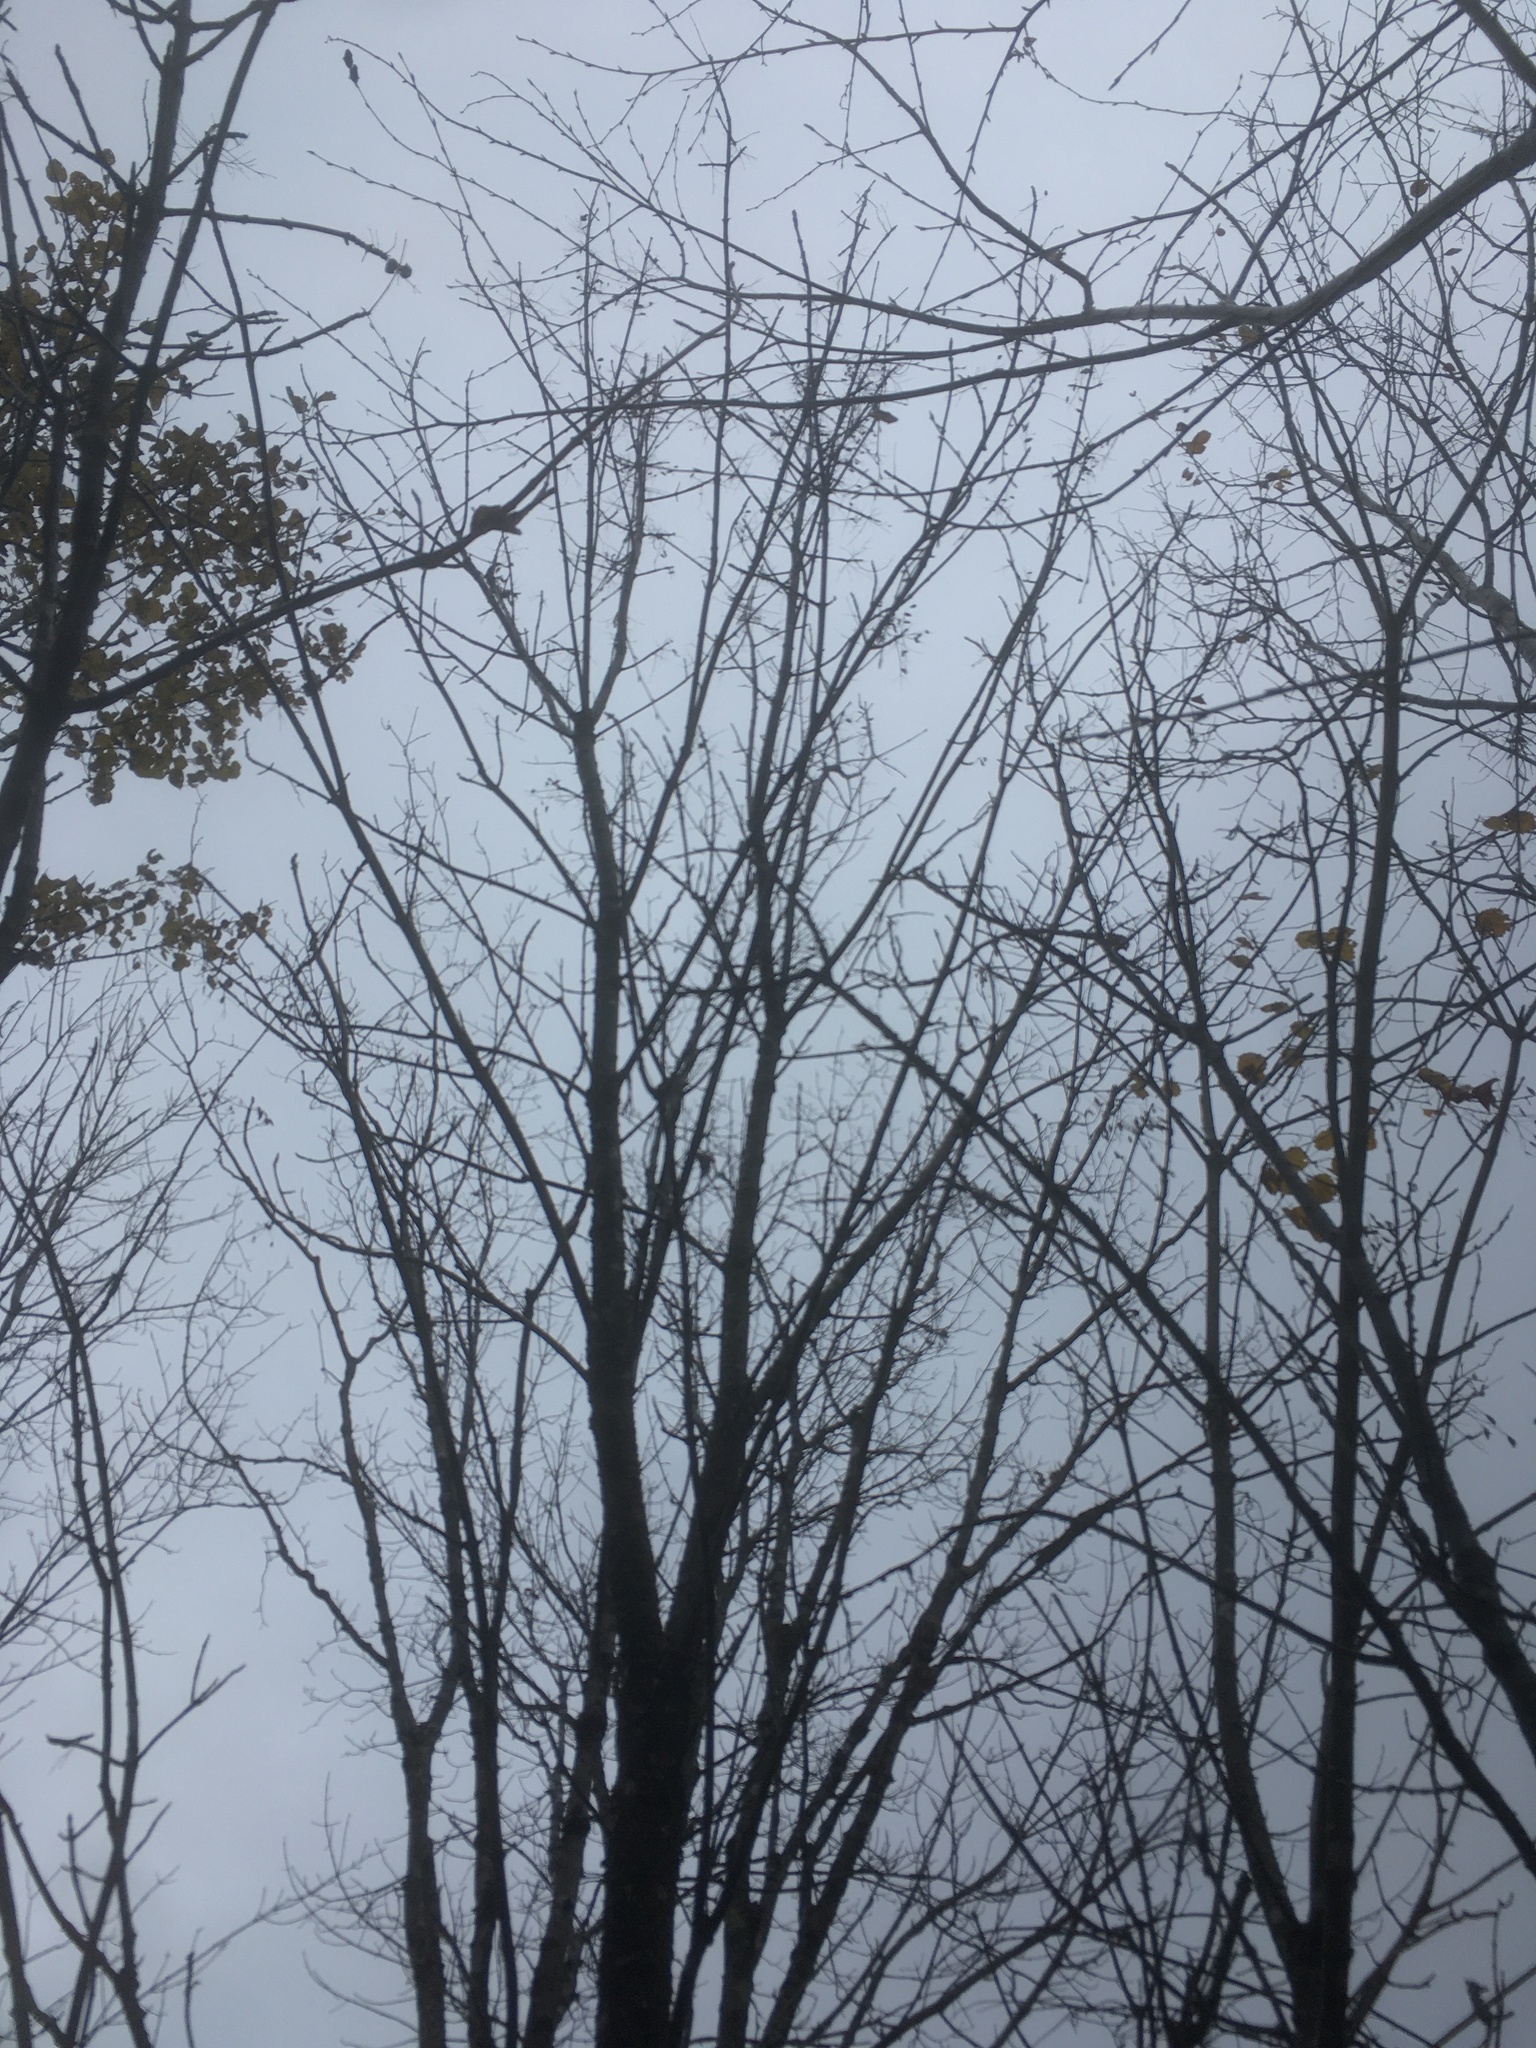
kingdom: Plantae
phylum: Tracheophyta
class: Magnoliopsida
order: Lamiales
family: Oleaceae
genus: Fraxinus
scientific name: Fraxinus nigra
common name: Black ash
